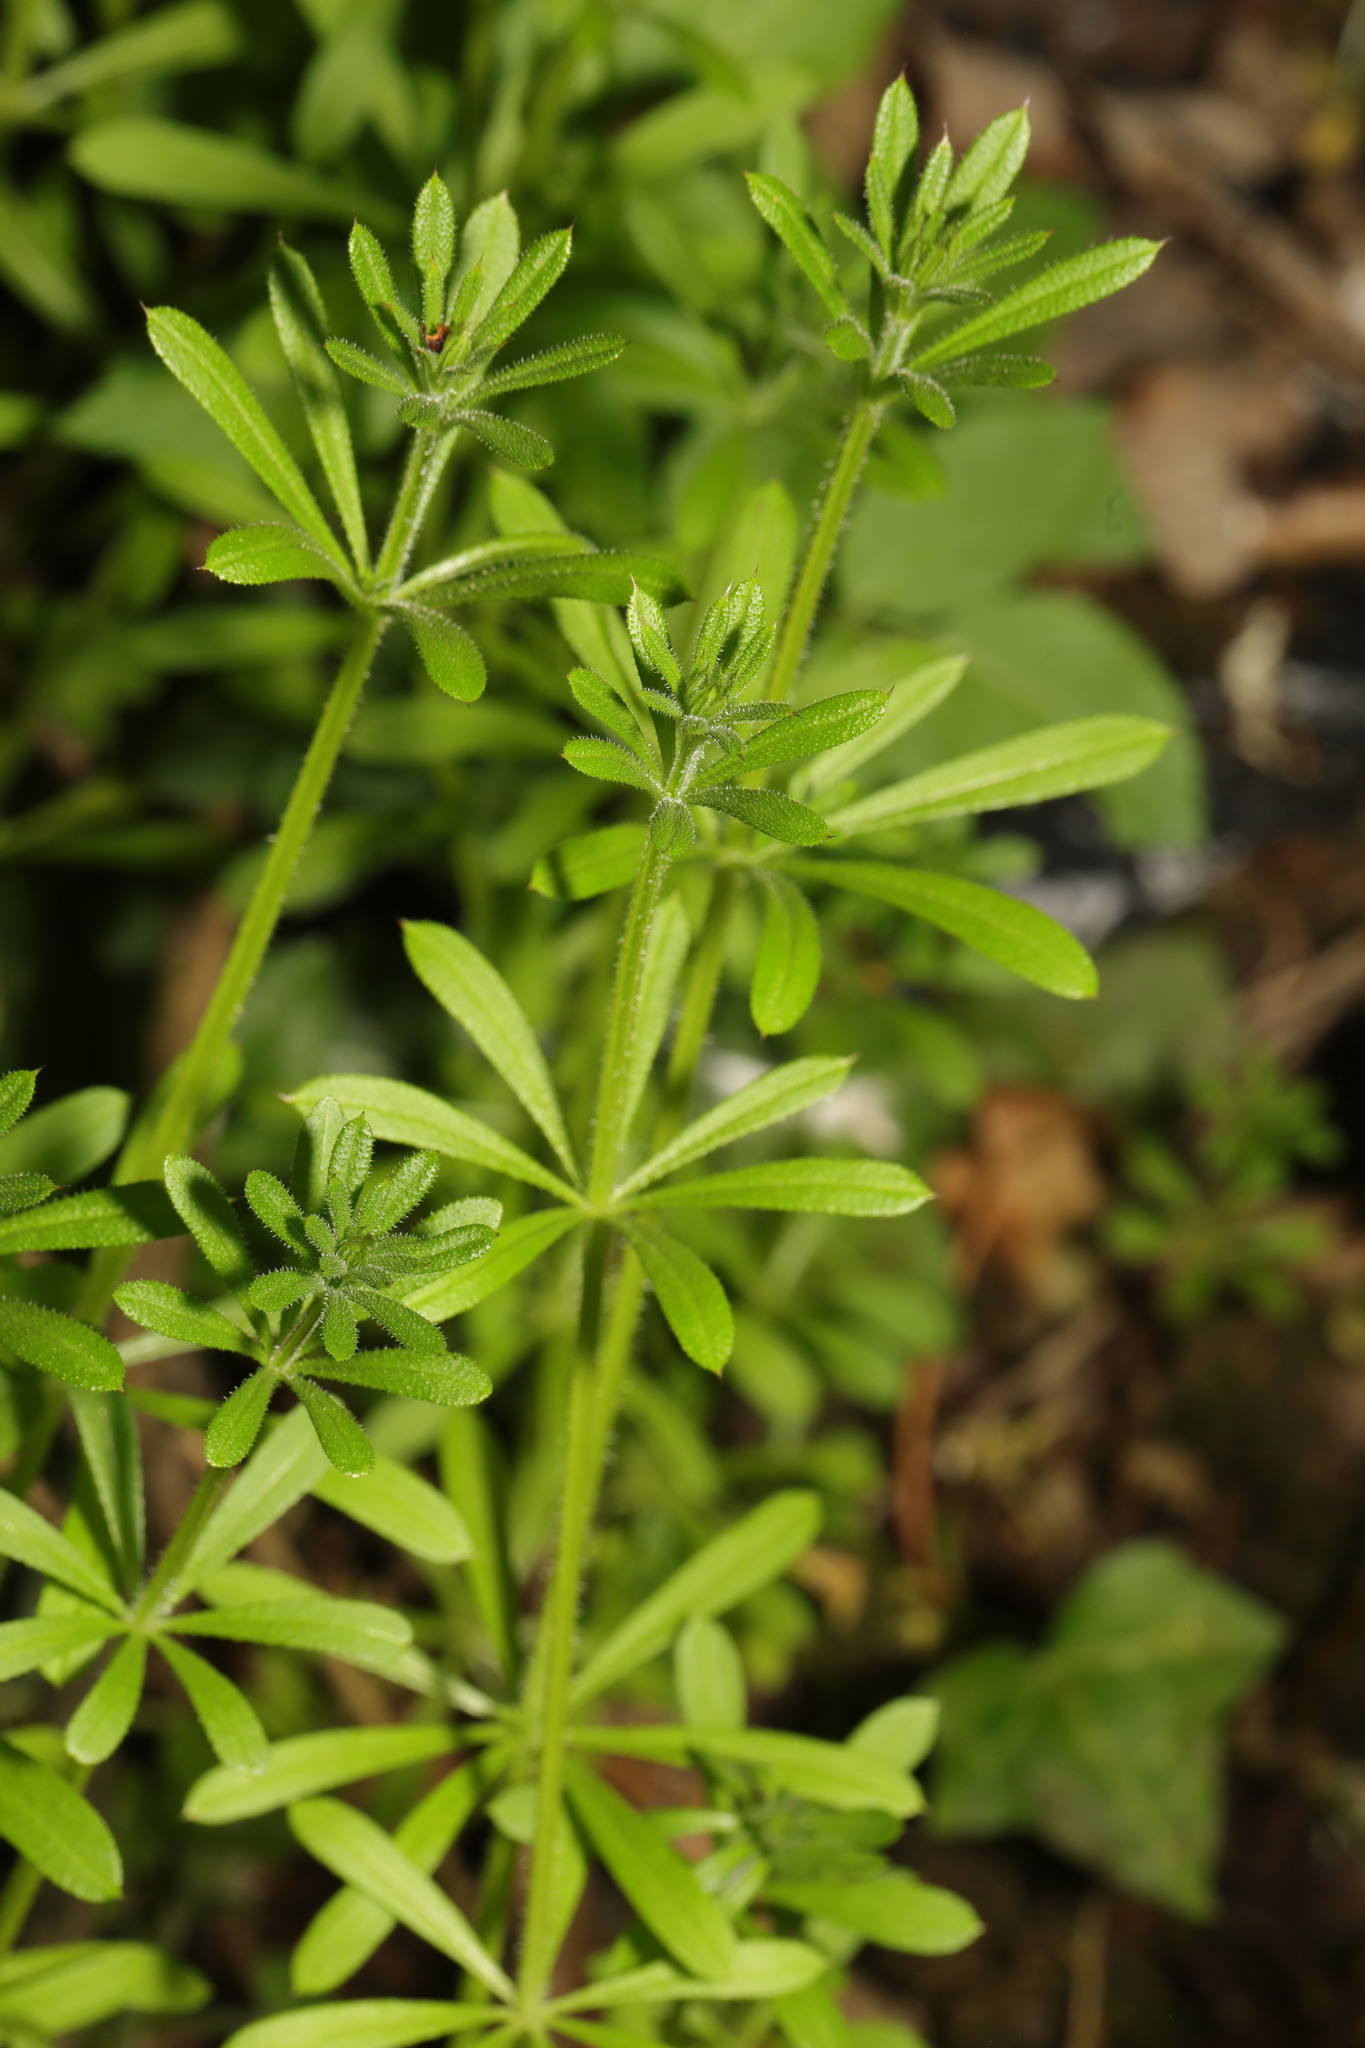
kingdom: Plantae
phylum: Tracheophyta
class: Magnoliopsida
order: Gentianales
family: Rubiaceae
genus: Galium
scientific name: Galium aparine
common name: Cleavers
